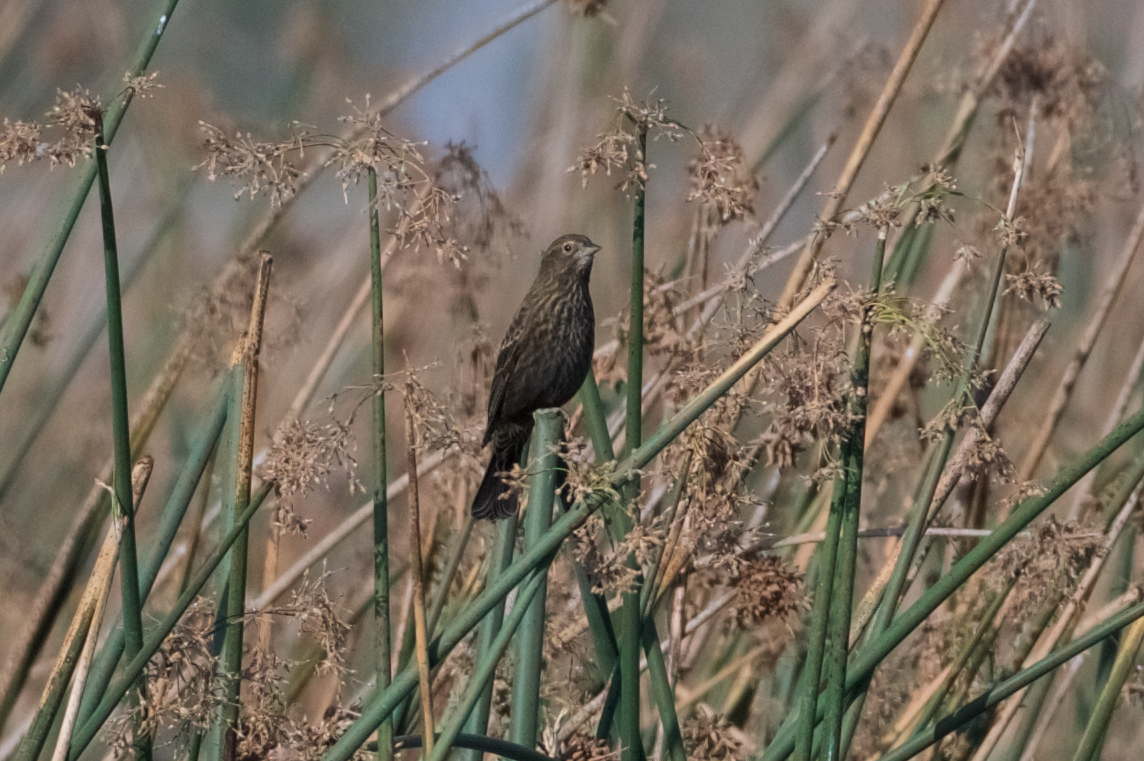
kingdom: Animalia
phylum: Chordata
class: Aves
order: Passeriformes
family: Icteridae
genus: Agelaius
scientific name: Agelaius phoeniceus
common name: Red-winged blackbird
